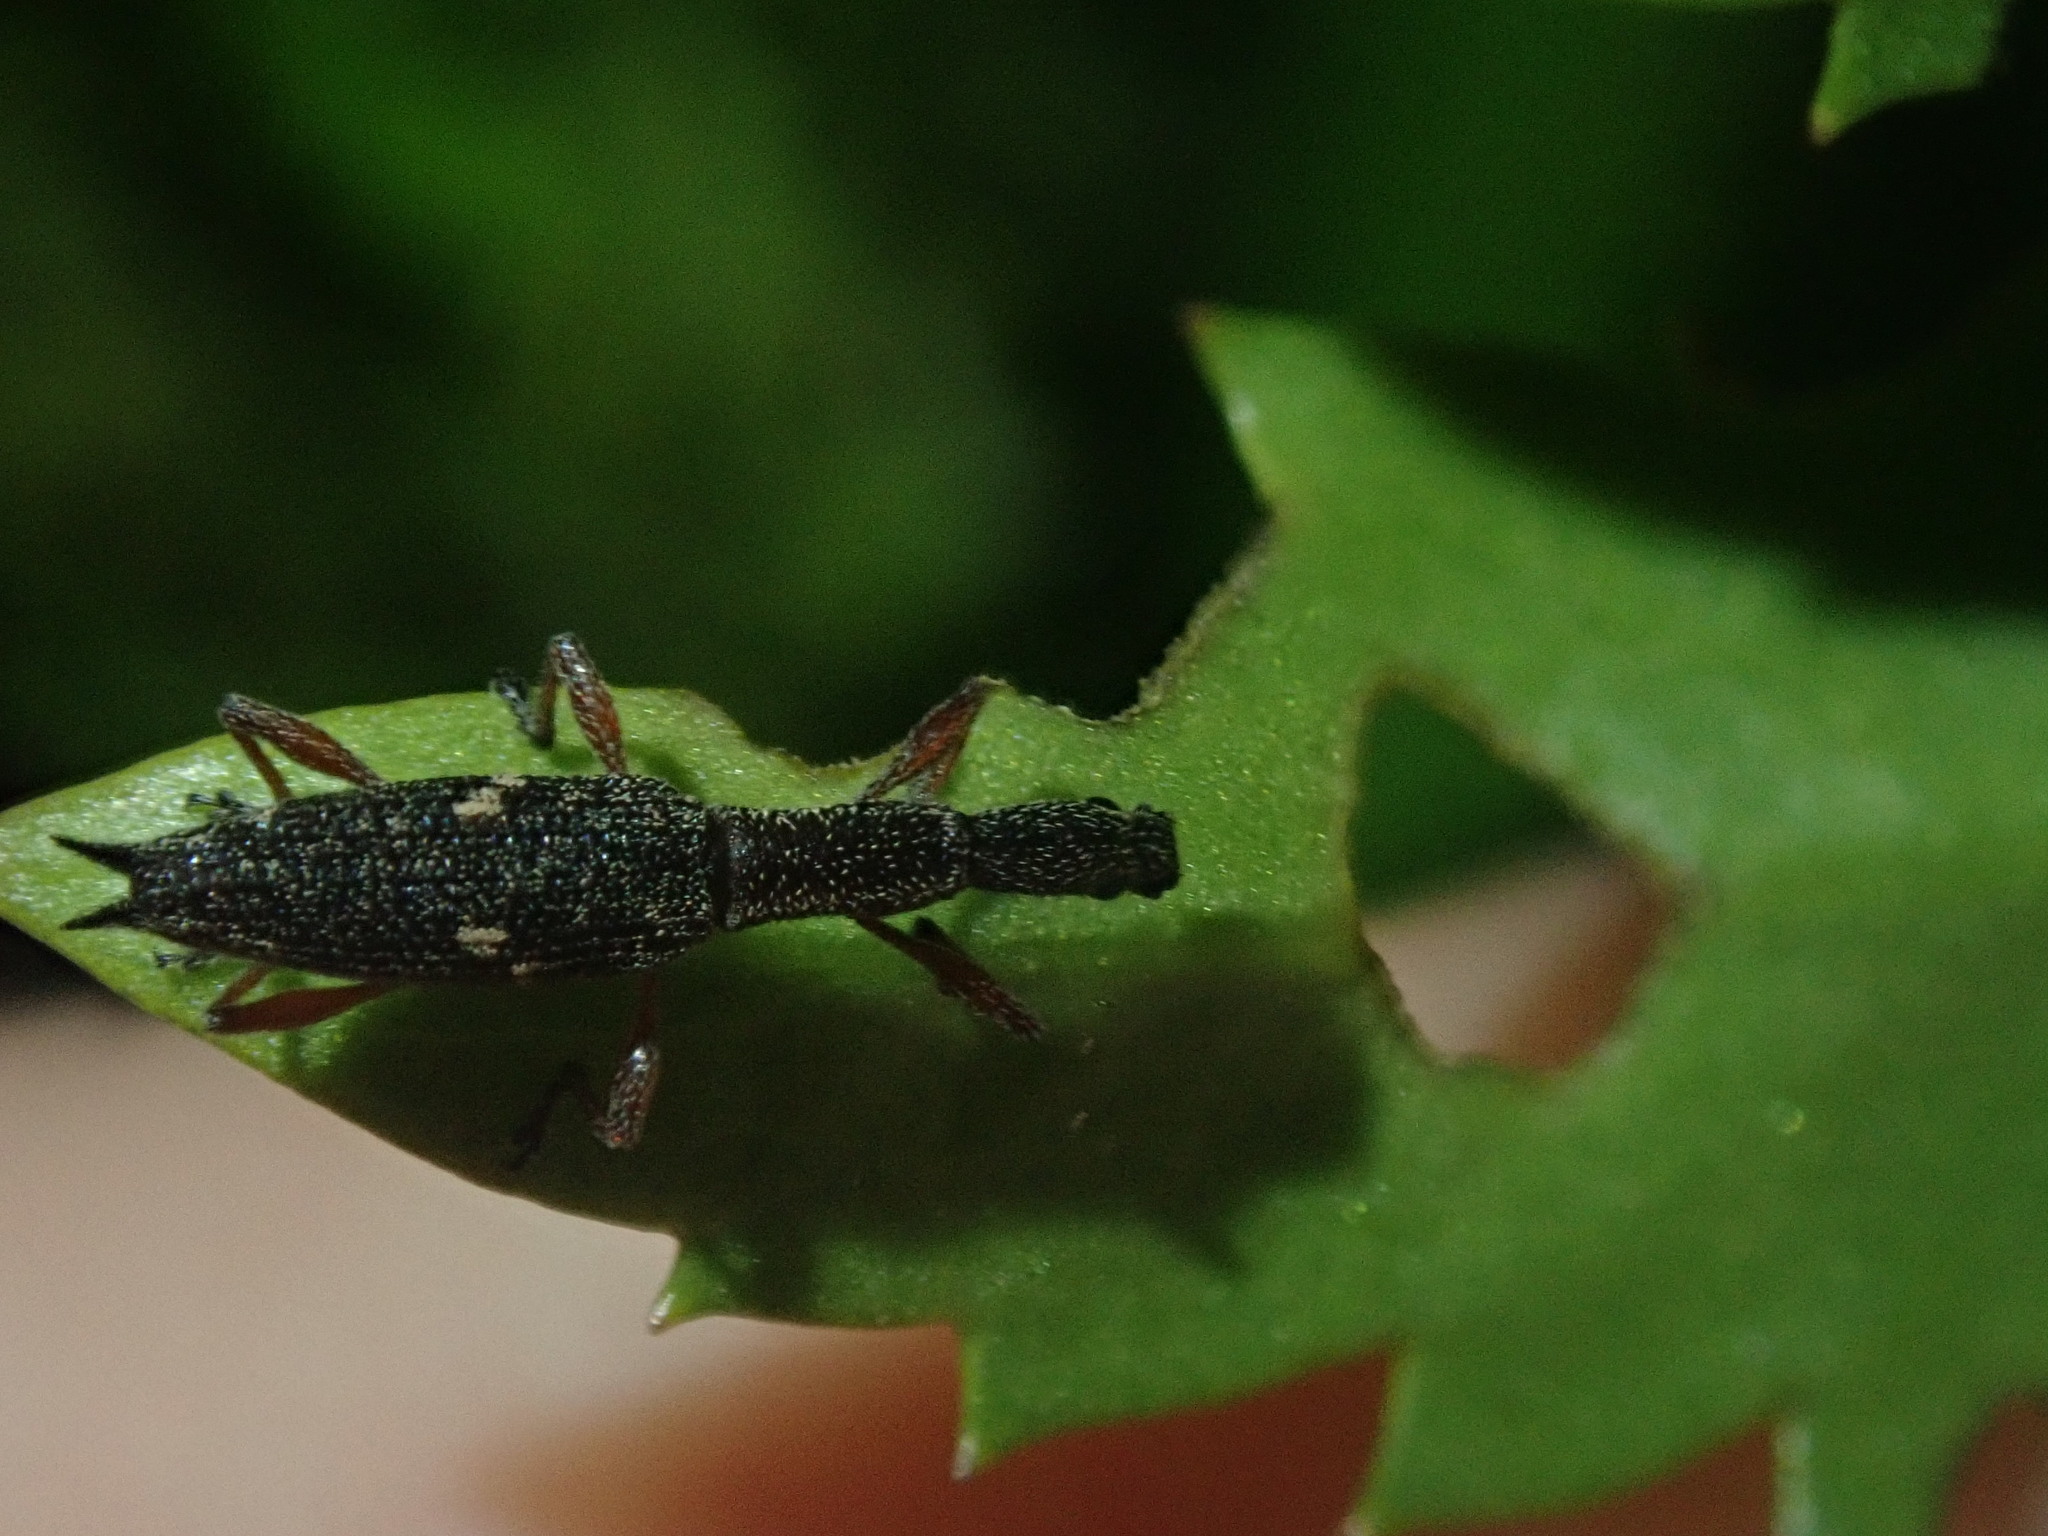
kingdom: Animalia
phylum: Arthropoda
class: Insecta
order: Coleoptera
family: Curculionidae
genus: Rhadinosomus
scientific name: Rhadinosomus acuminatus
